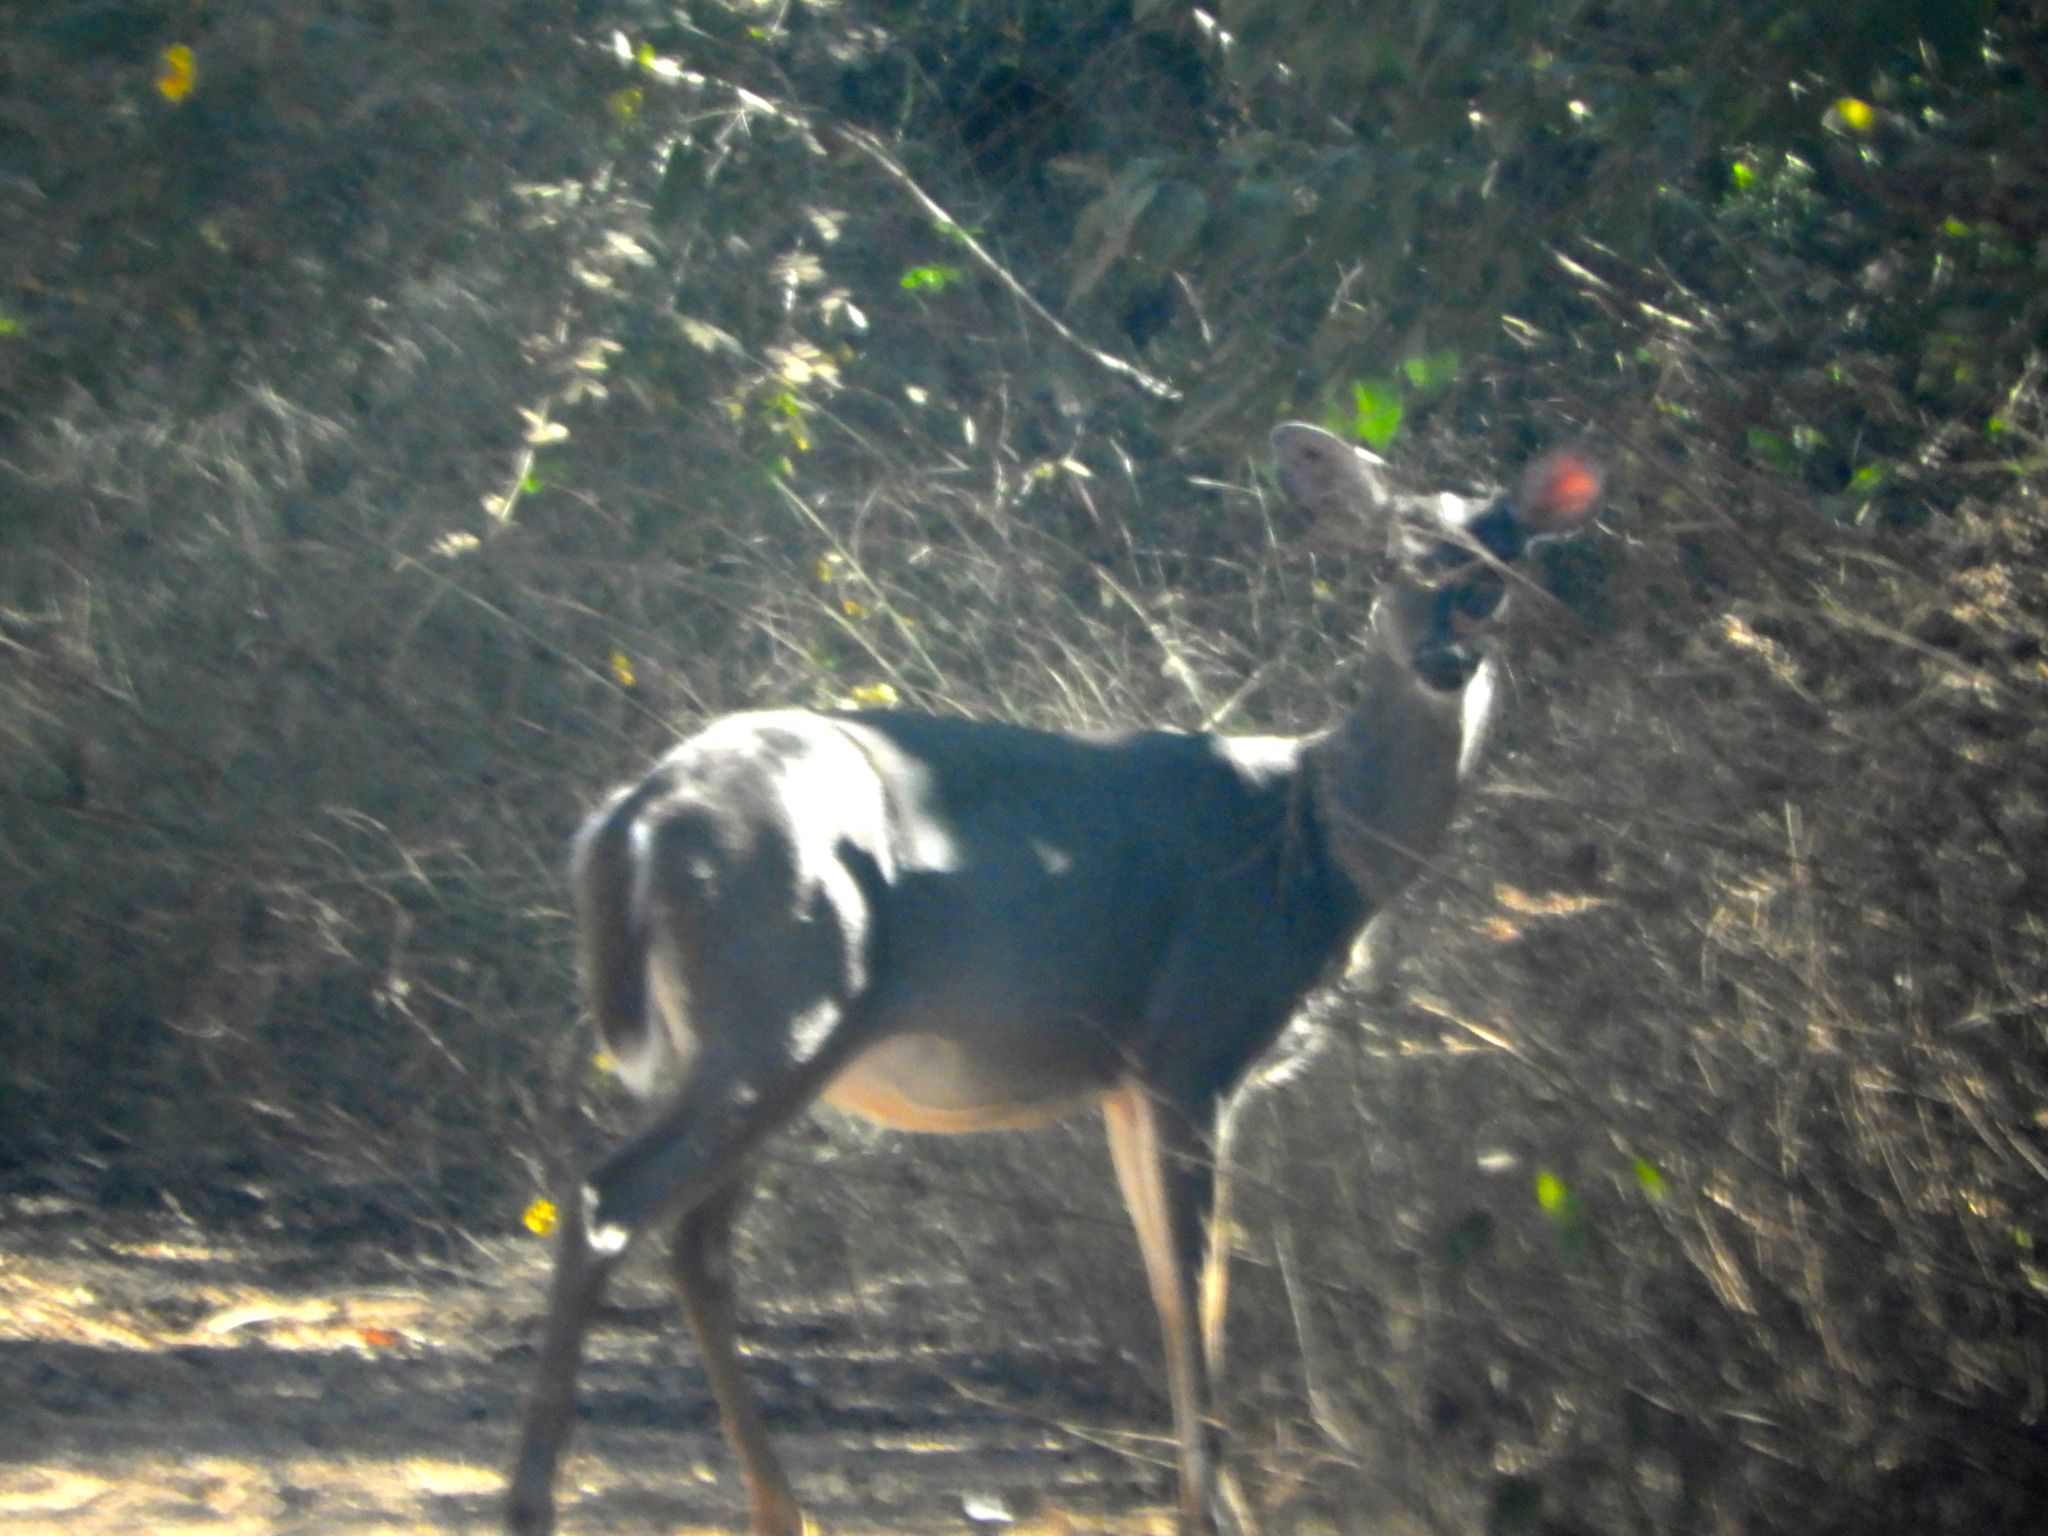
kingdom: Animalia
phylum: Chordata
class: Mammalia
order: Artiodactyla
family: Cervidae
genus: Odocoileus
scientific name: Odocoileus virginianus
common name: White-tailed deer
